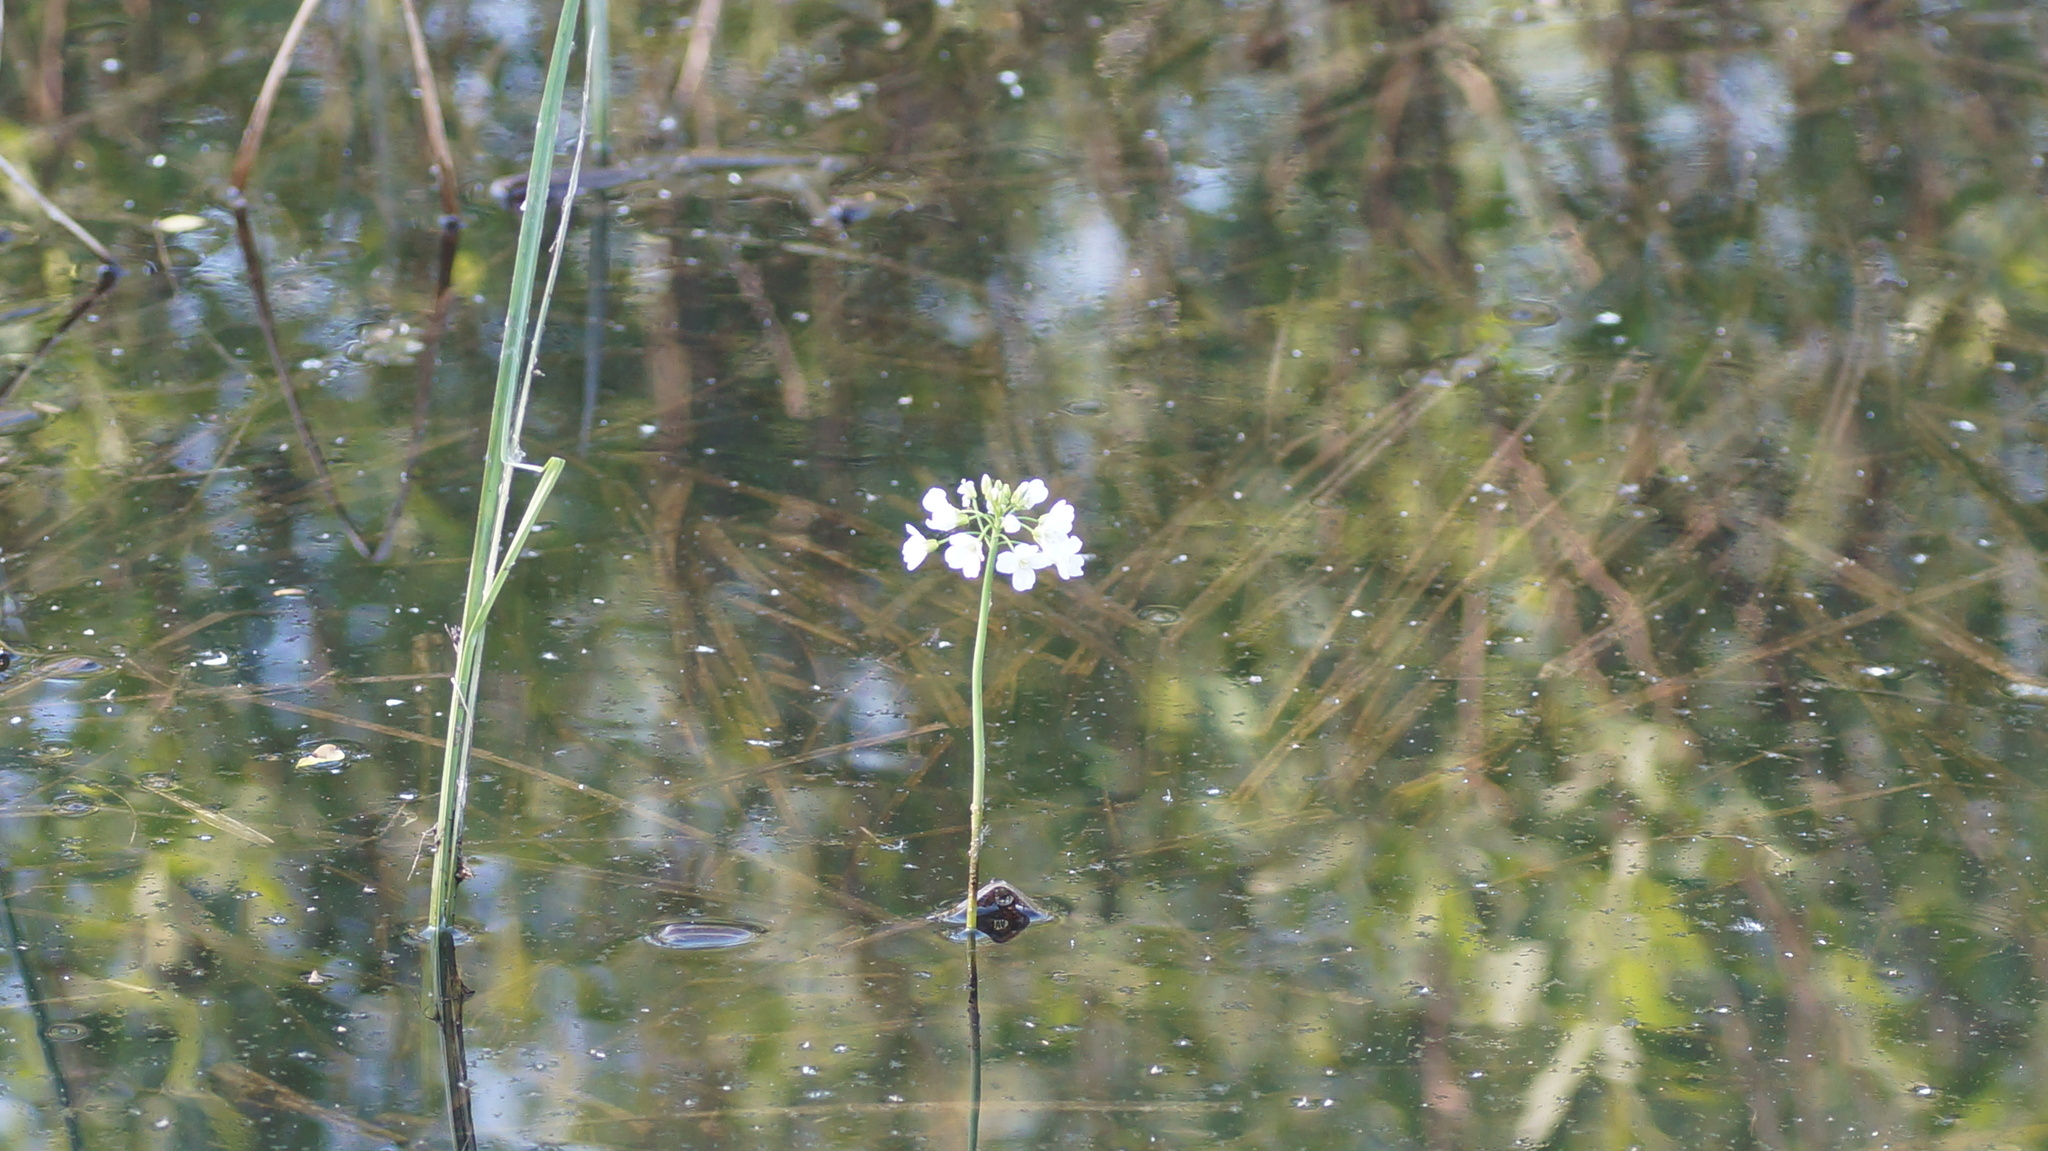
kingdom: Plantae
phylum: Tracheophyta
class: Magnoliopsida
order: Brassicales
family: Brassicaceae
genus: Cardamine
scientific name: Cardamine dentata
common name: Toothed bittercress
